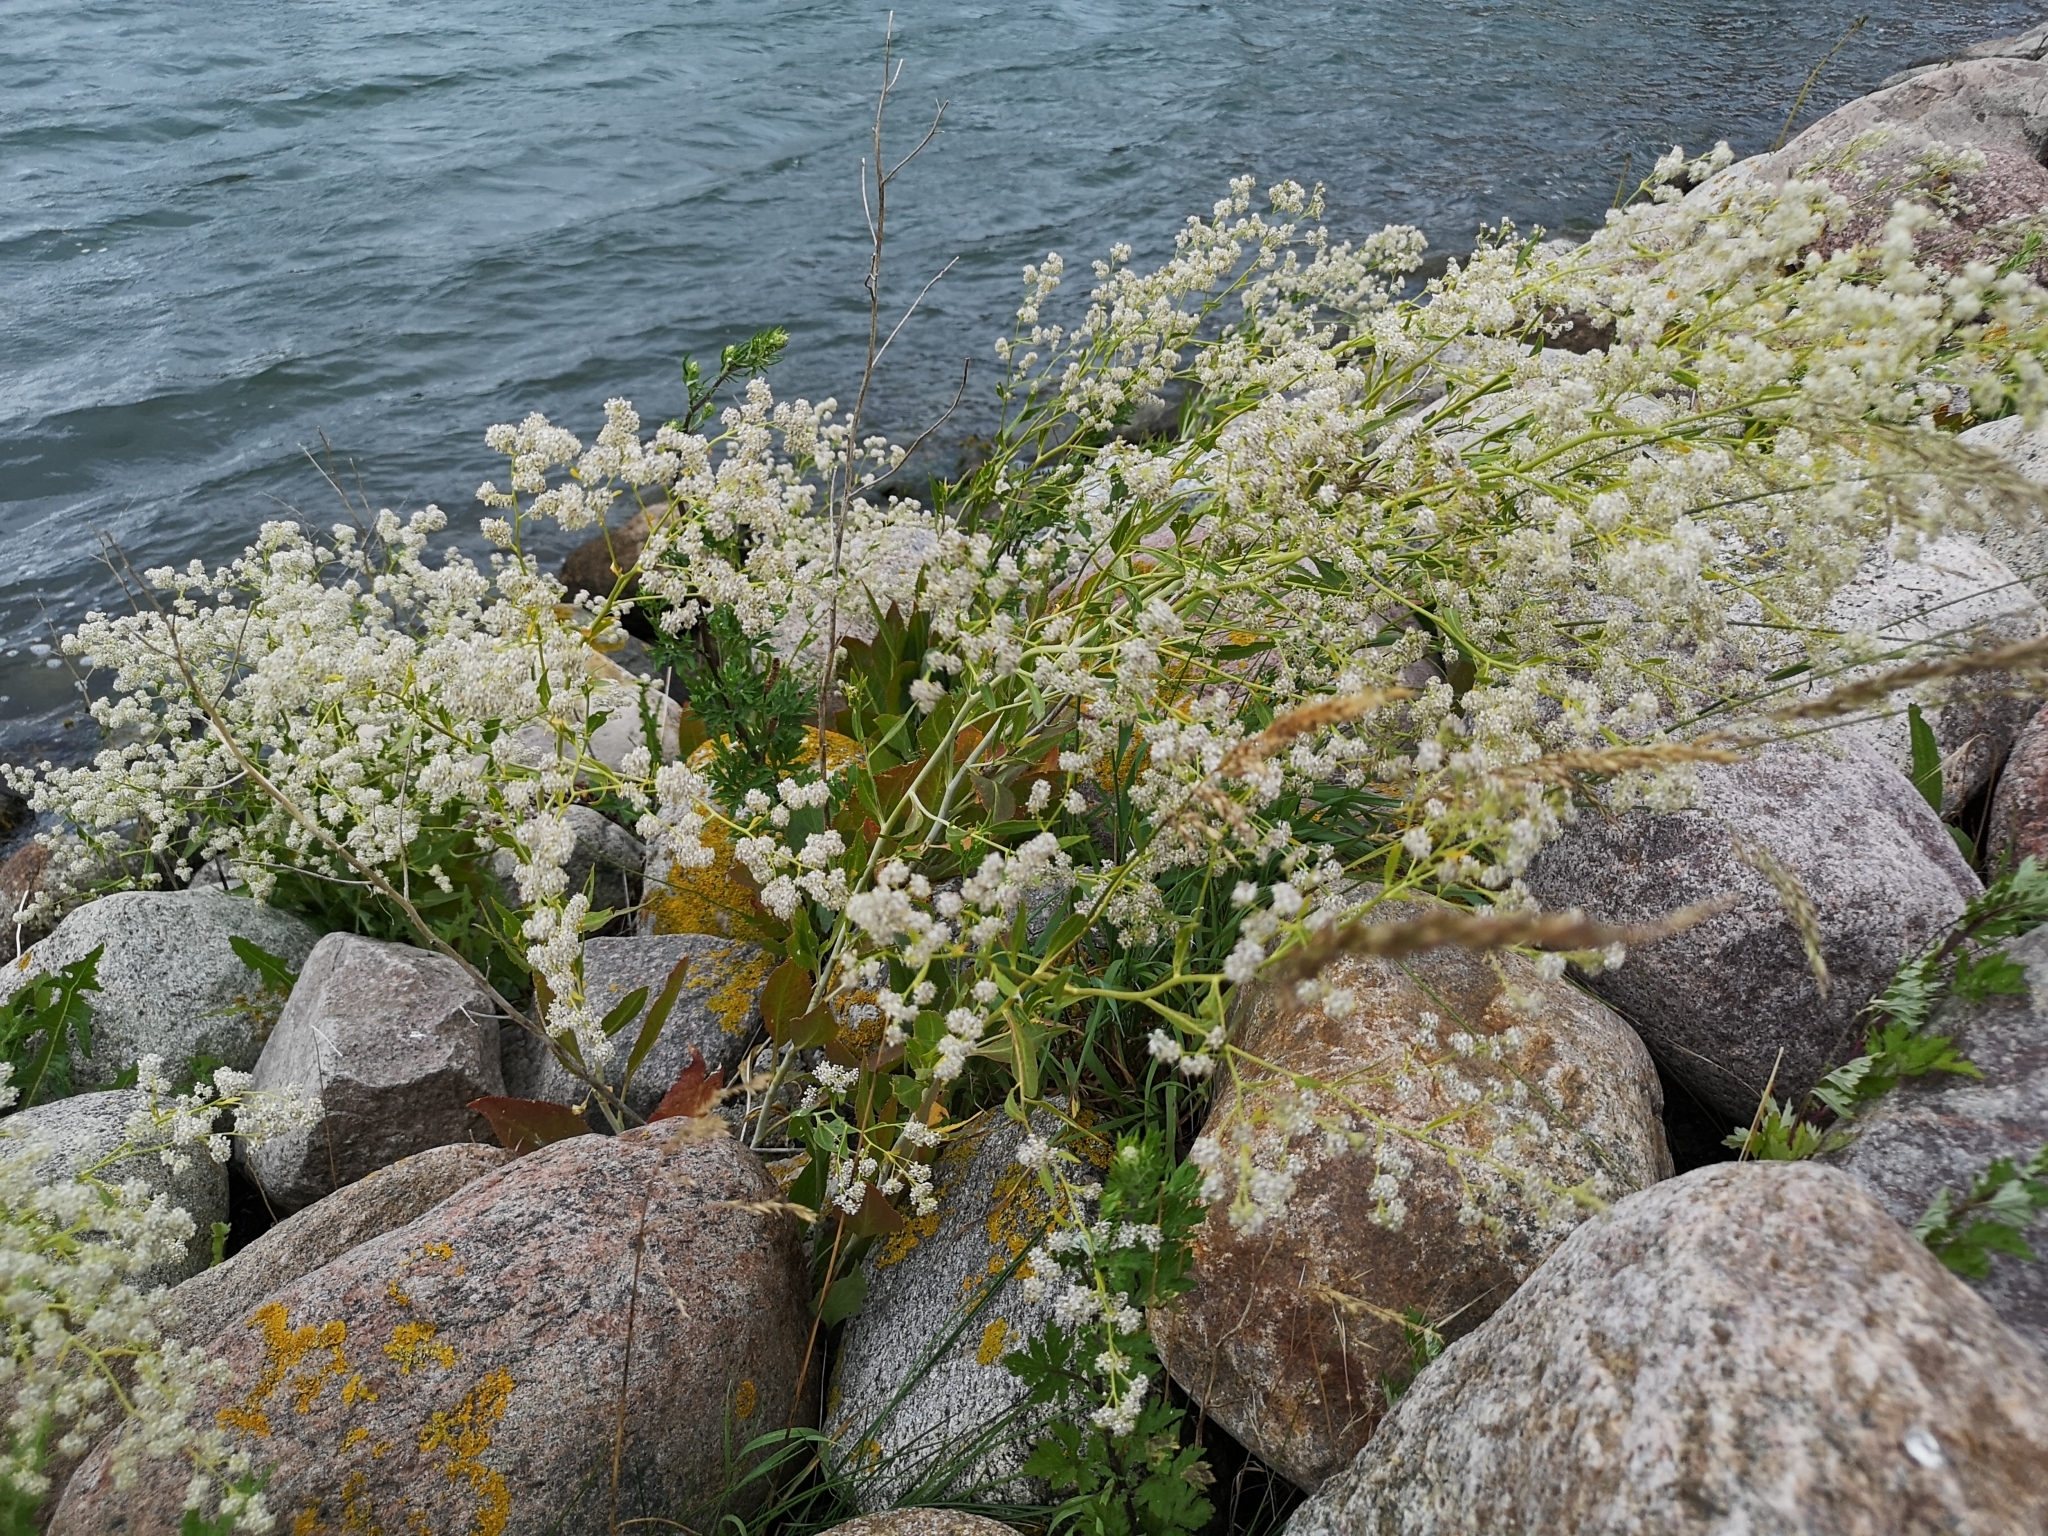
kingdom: Plantae
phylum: Tracheophyta
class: Magnoliopsida
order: Brassicales
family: Brassicaceae
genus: Lepidium
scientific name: Lepidium latifolium
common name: Dittander
